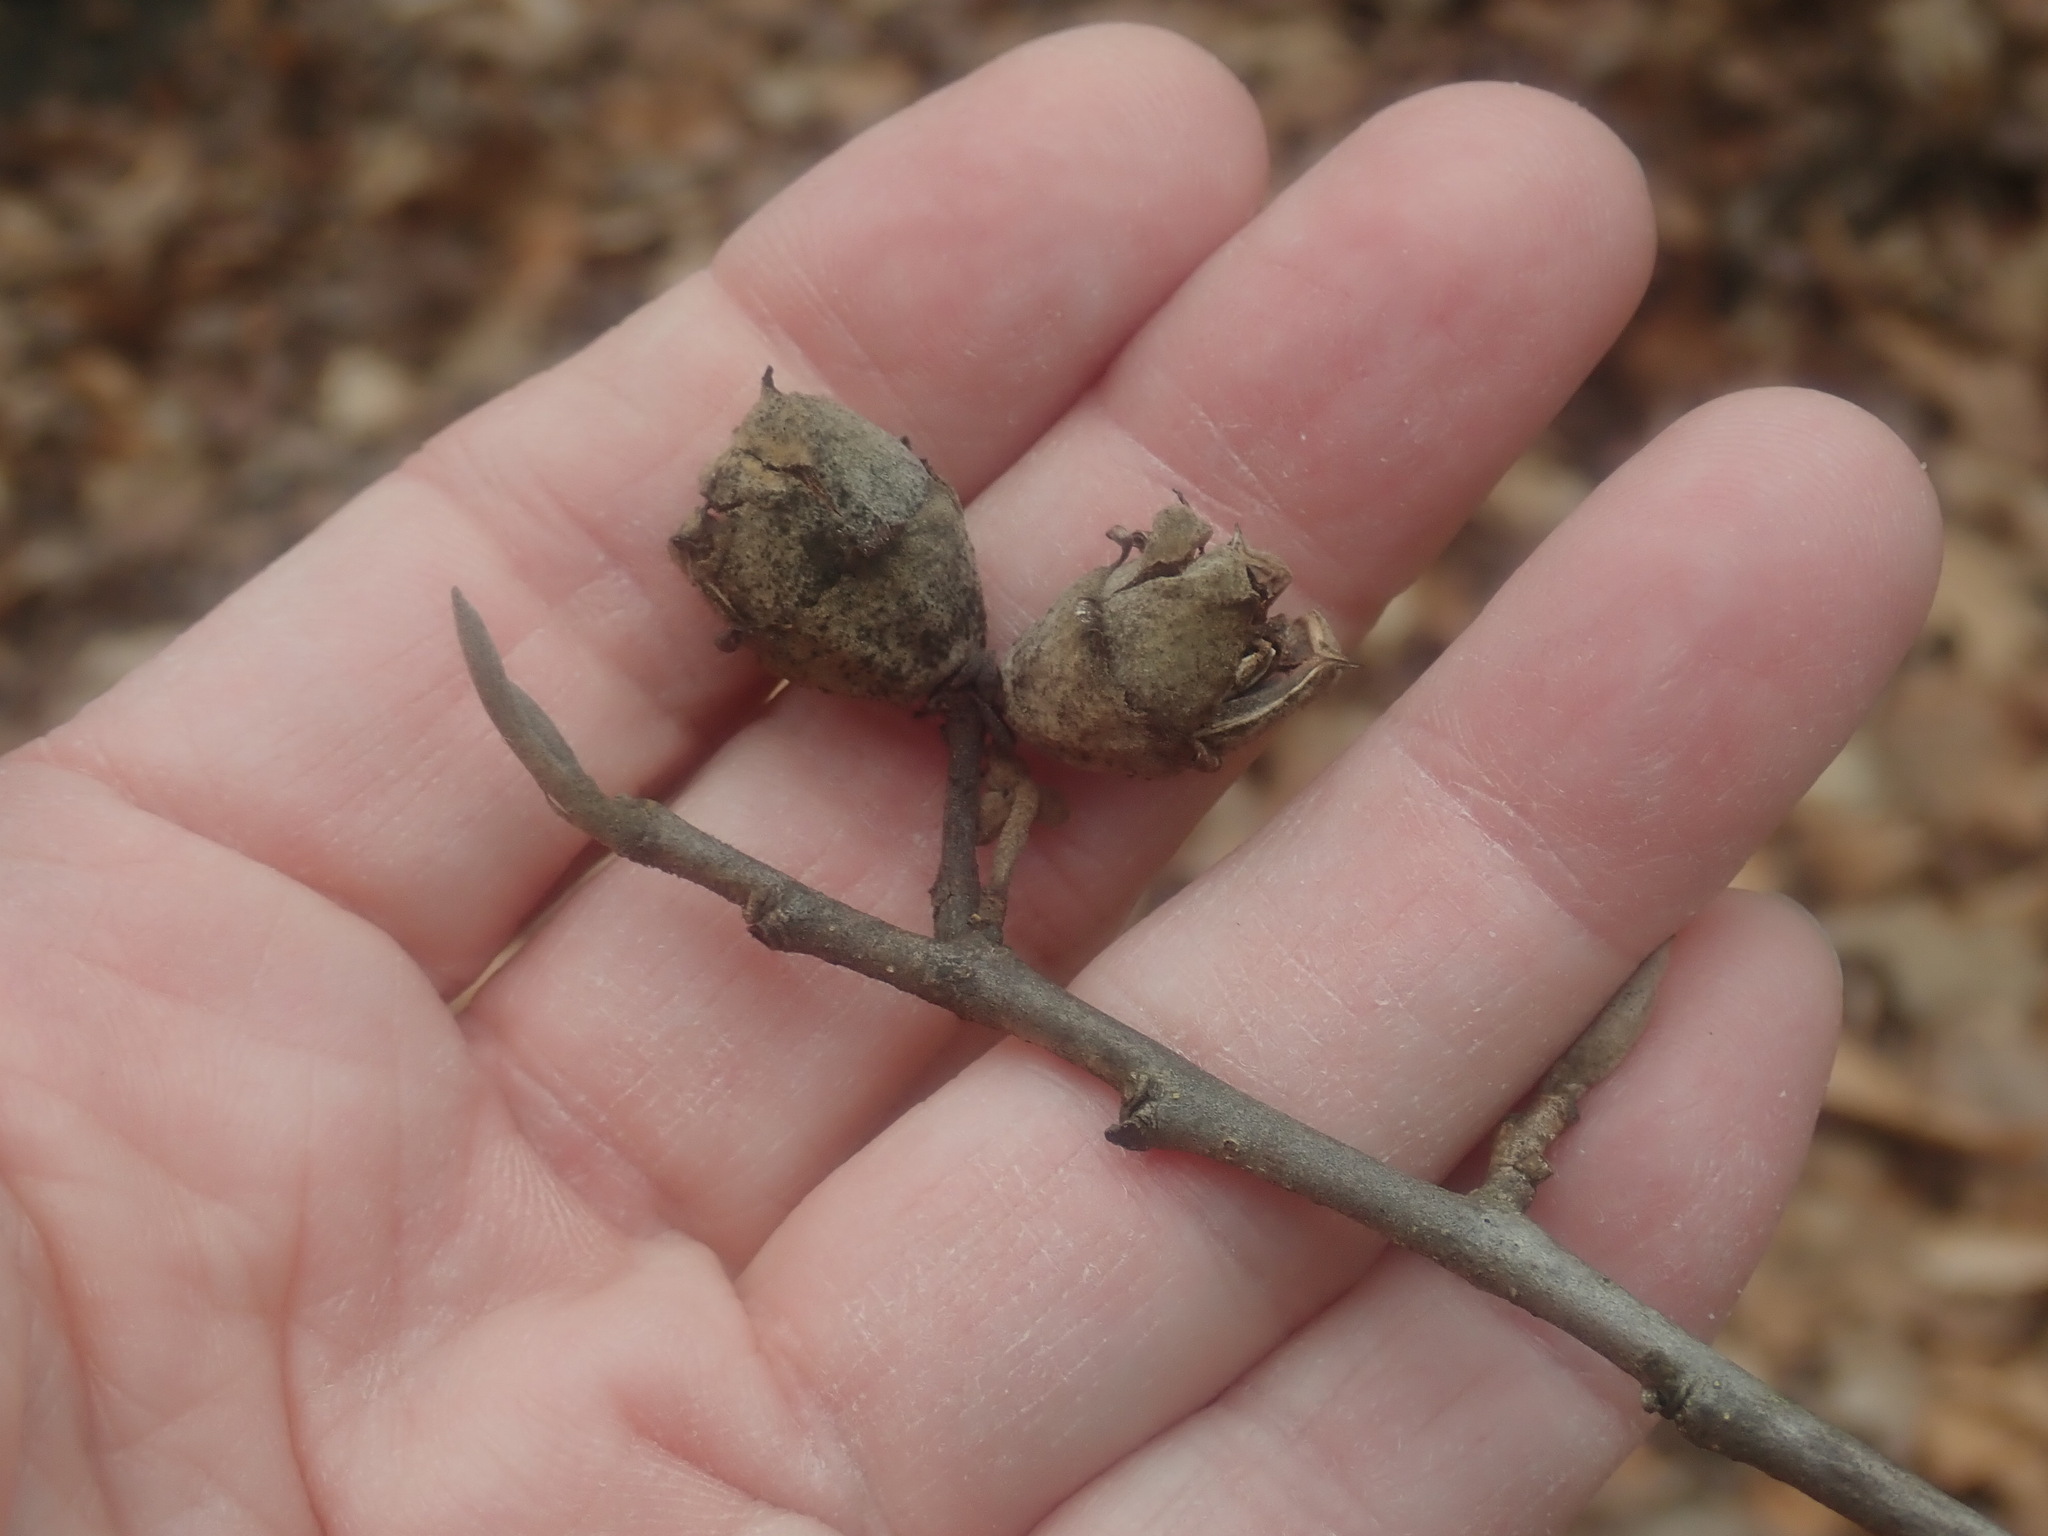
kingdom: Plantae
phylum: Tracheophyta
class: Magnoliopsida
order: Saxifragales
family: Hamamelidaceae
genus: Hamamelis
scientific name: Hamamelis virginiana
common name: Witch-hazel
